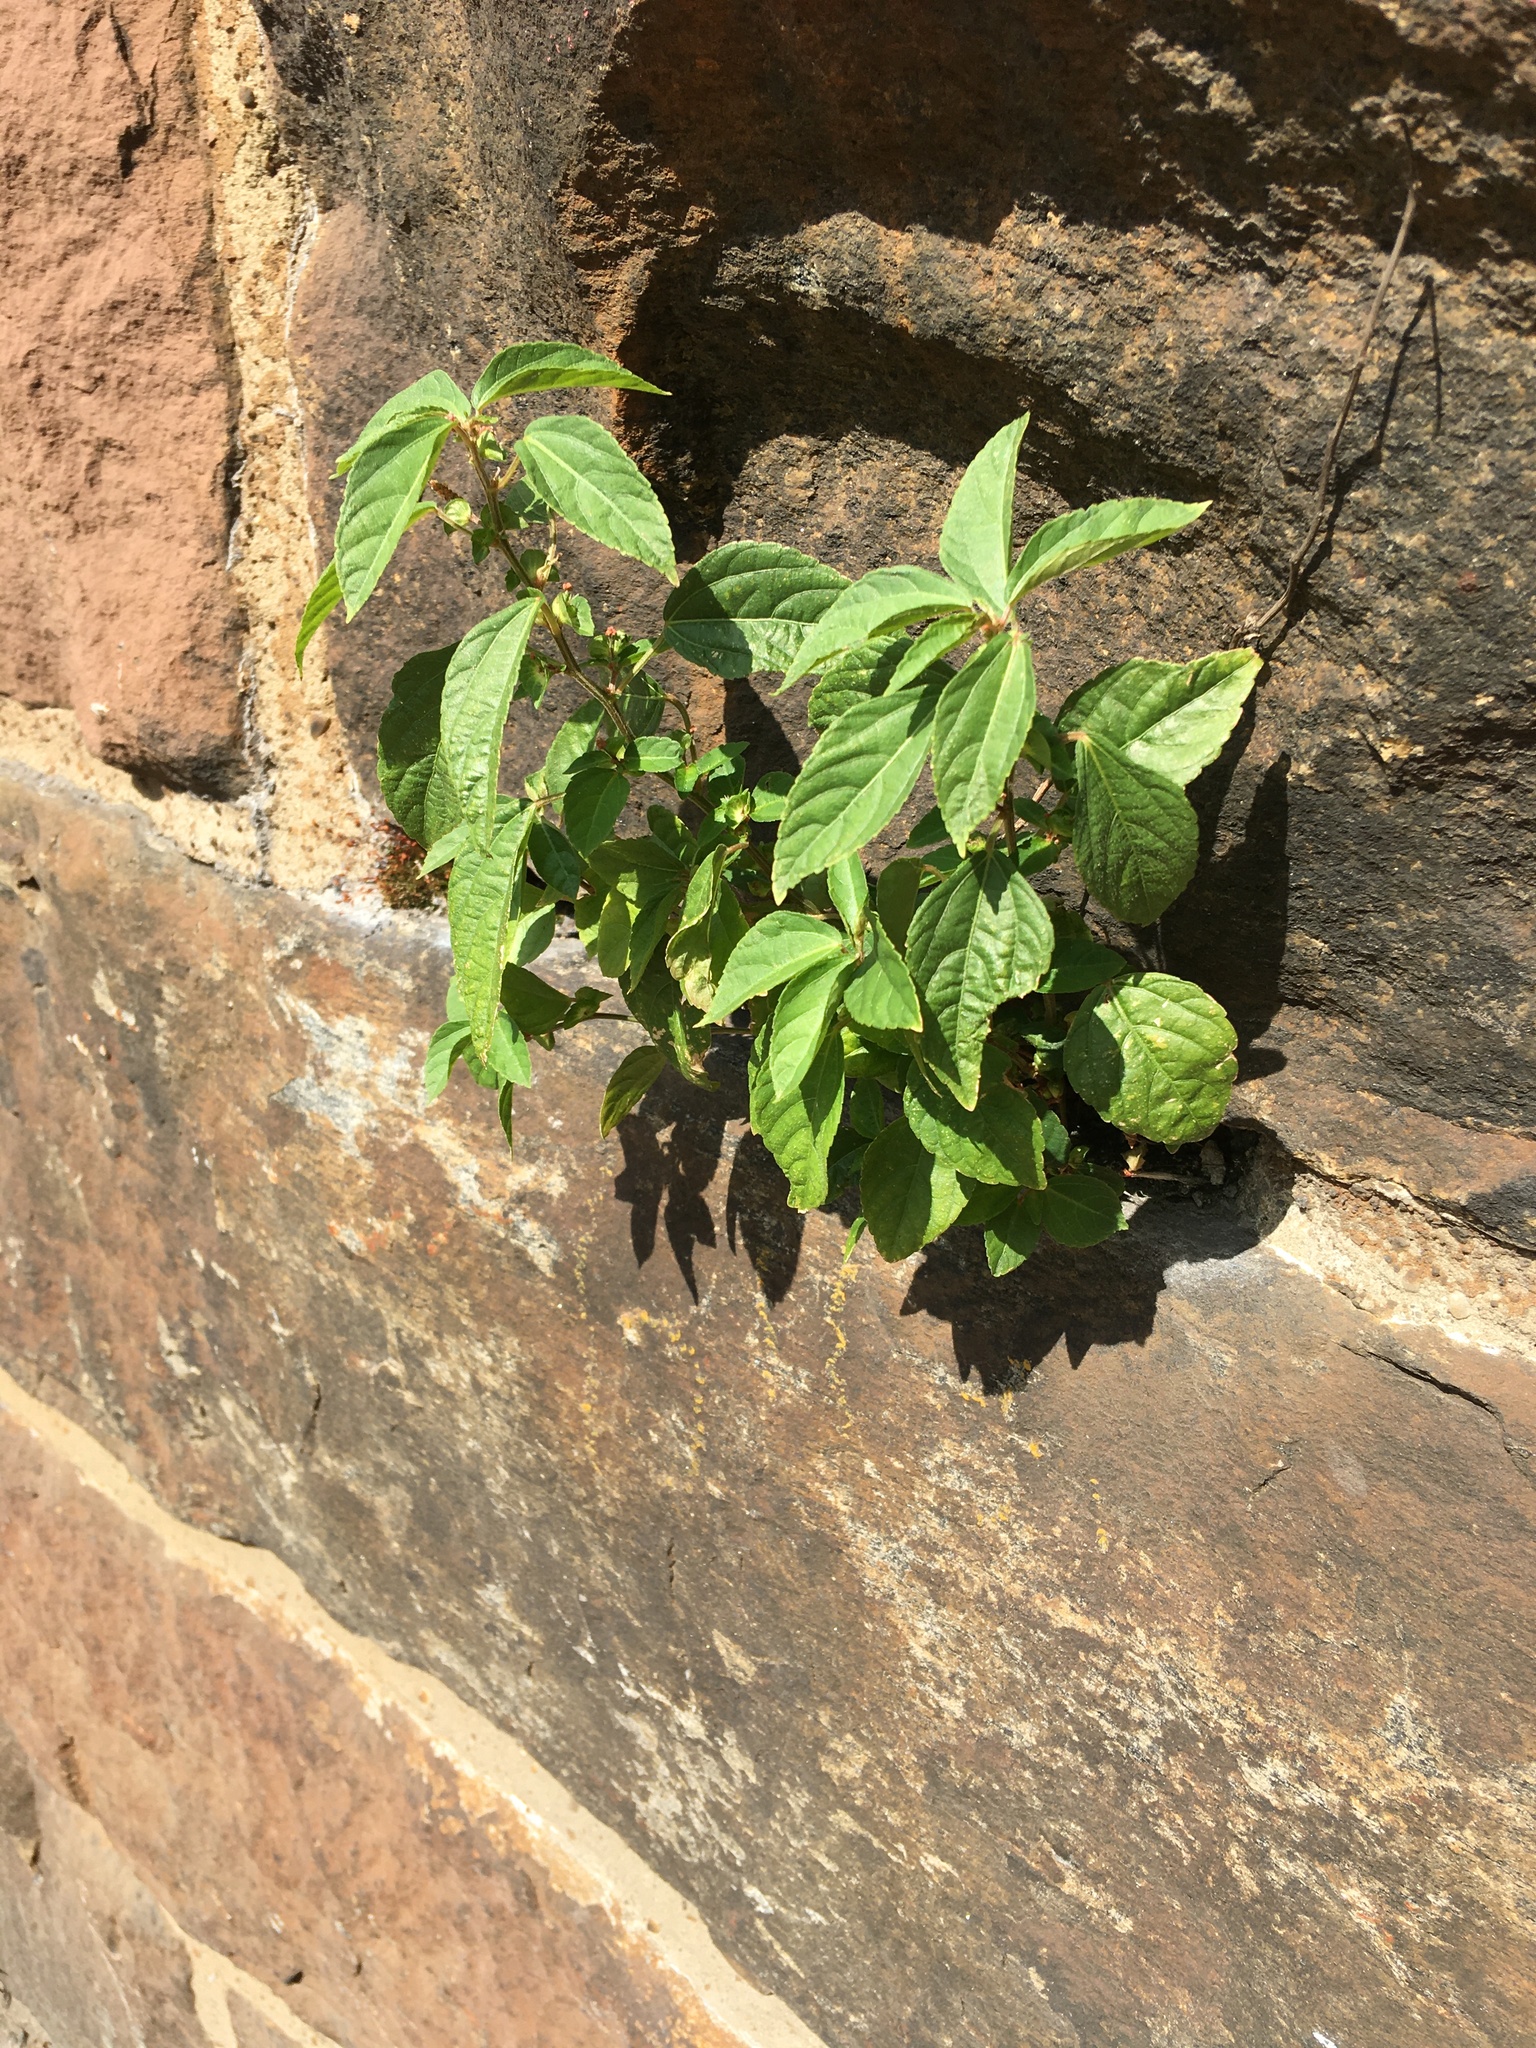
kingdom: Plantae
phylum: Tracheophyta
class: Magnoliopsida
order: Malpighiales
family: Euphorbiaceae
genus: Acalypha
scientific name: Acalypha australis
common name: Asian copperleaf
